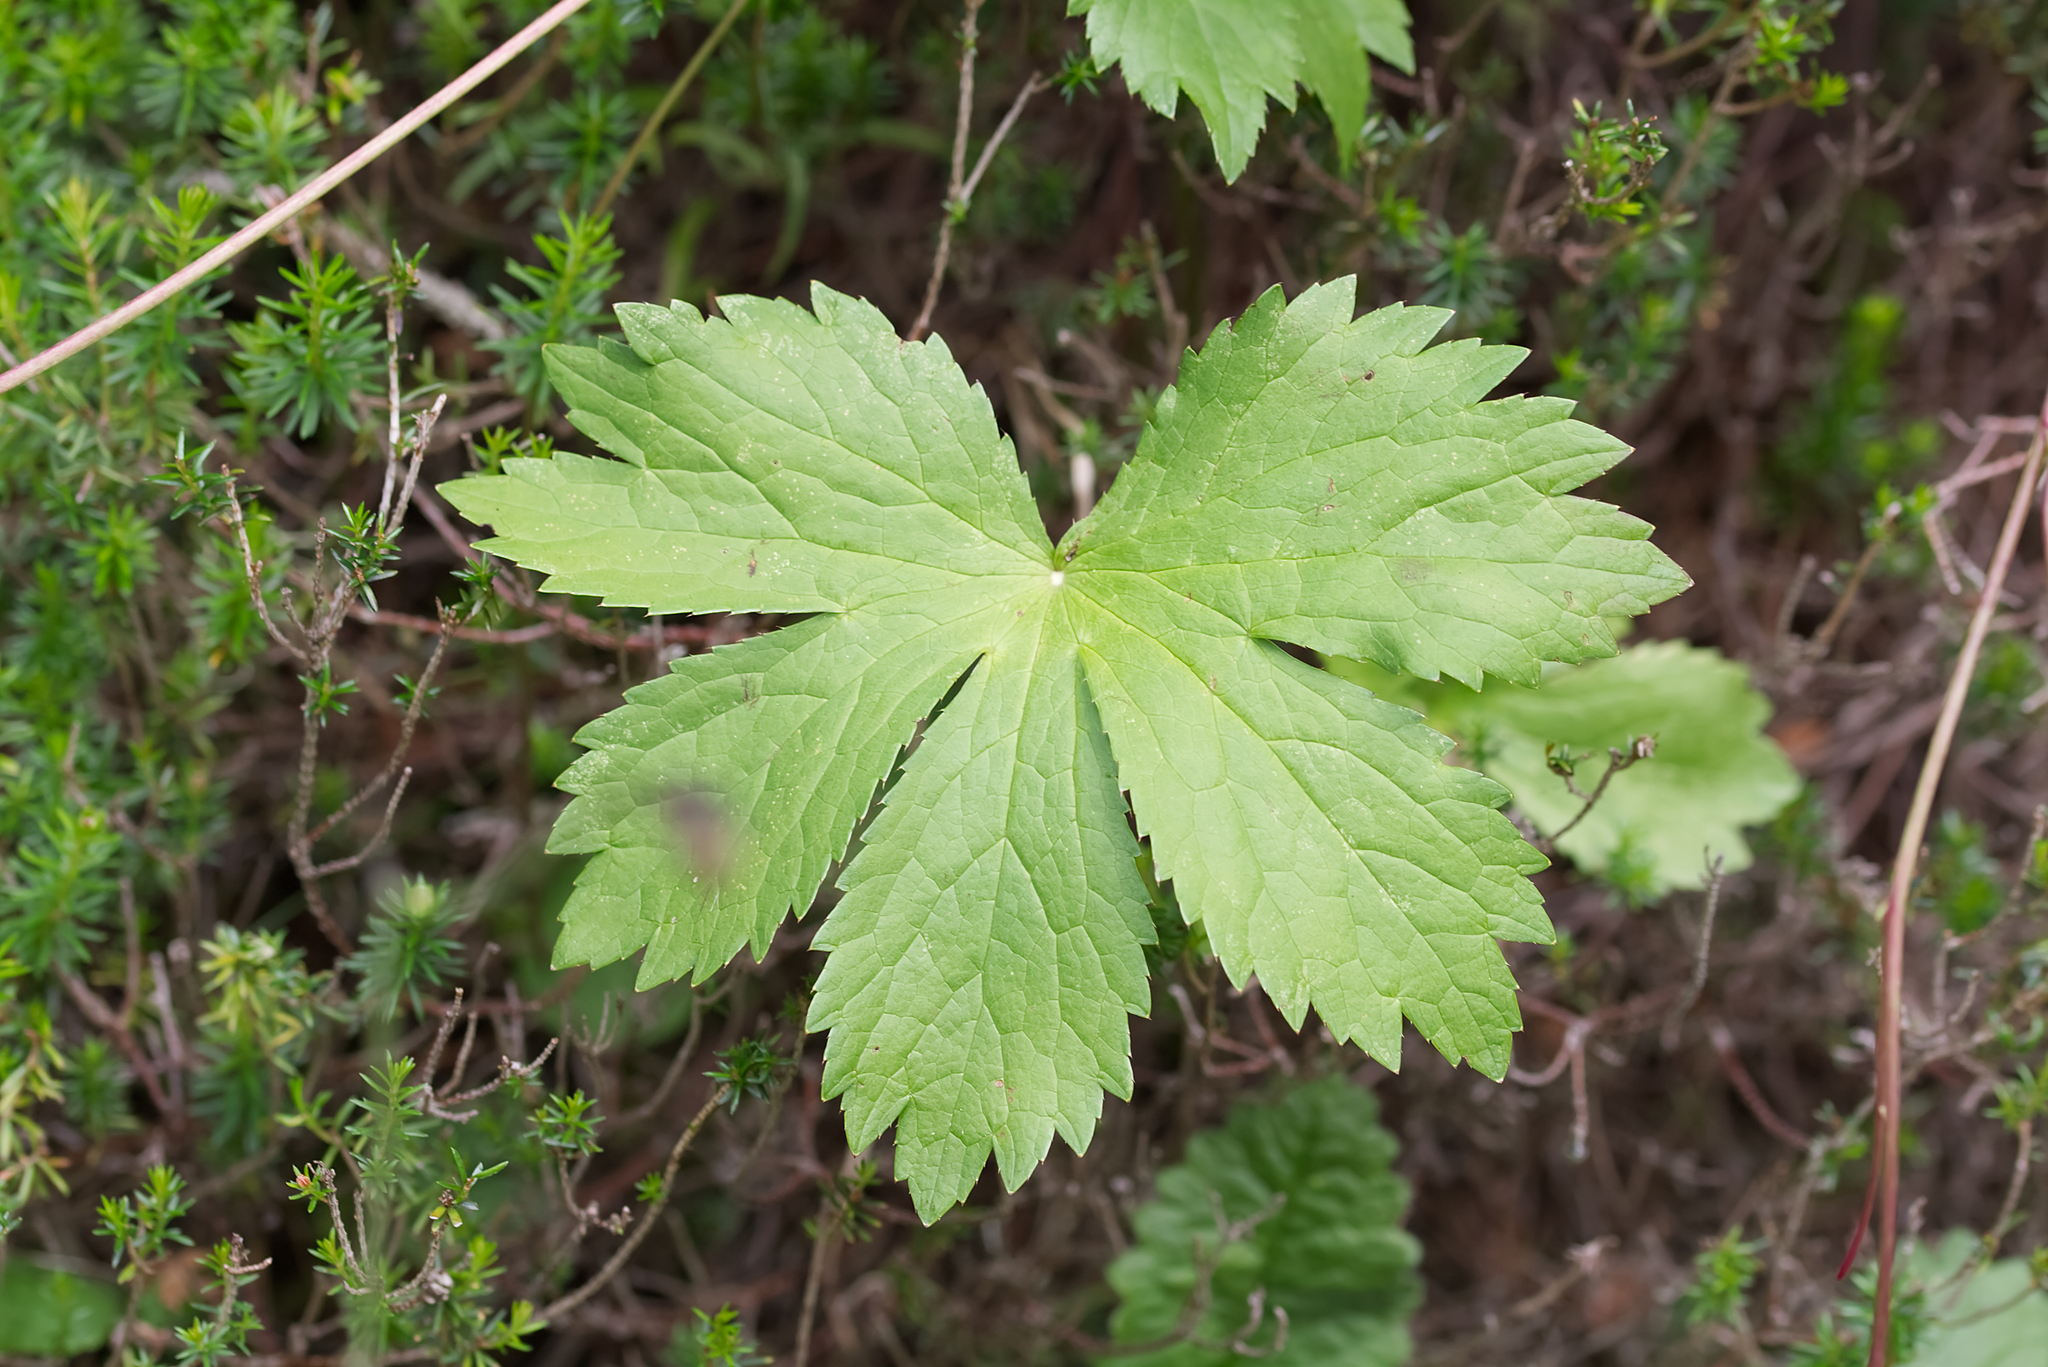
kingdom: Plantae
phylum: Tracheophyta
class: Magnoliopsida
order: Apiales
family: Apiaceae
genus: Astrantia
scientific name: Astrantia major
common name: Greater masterwort
